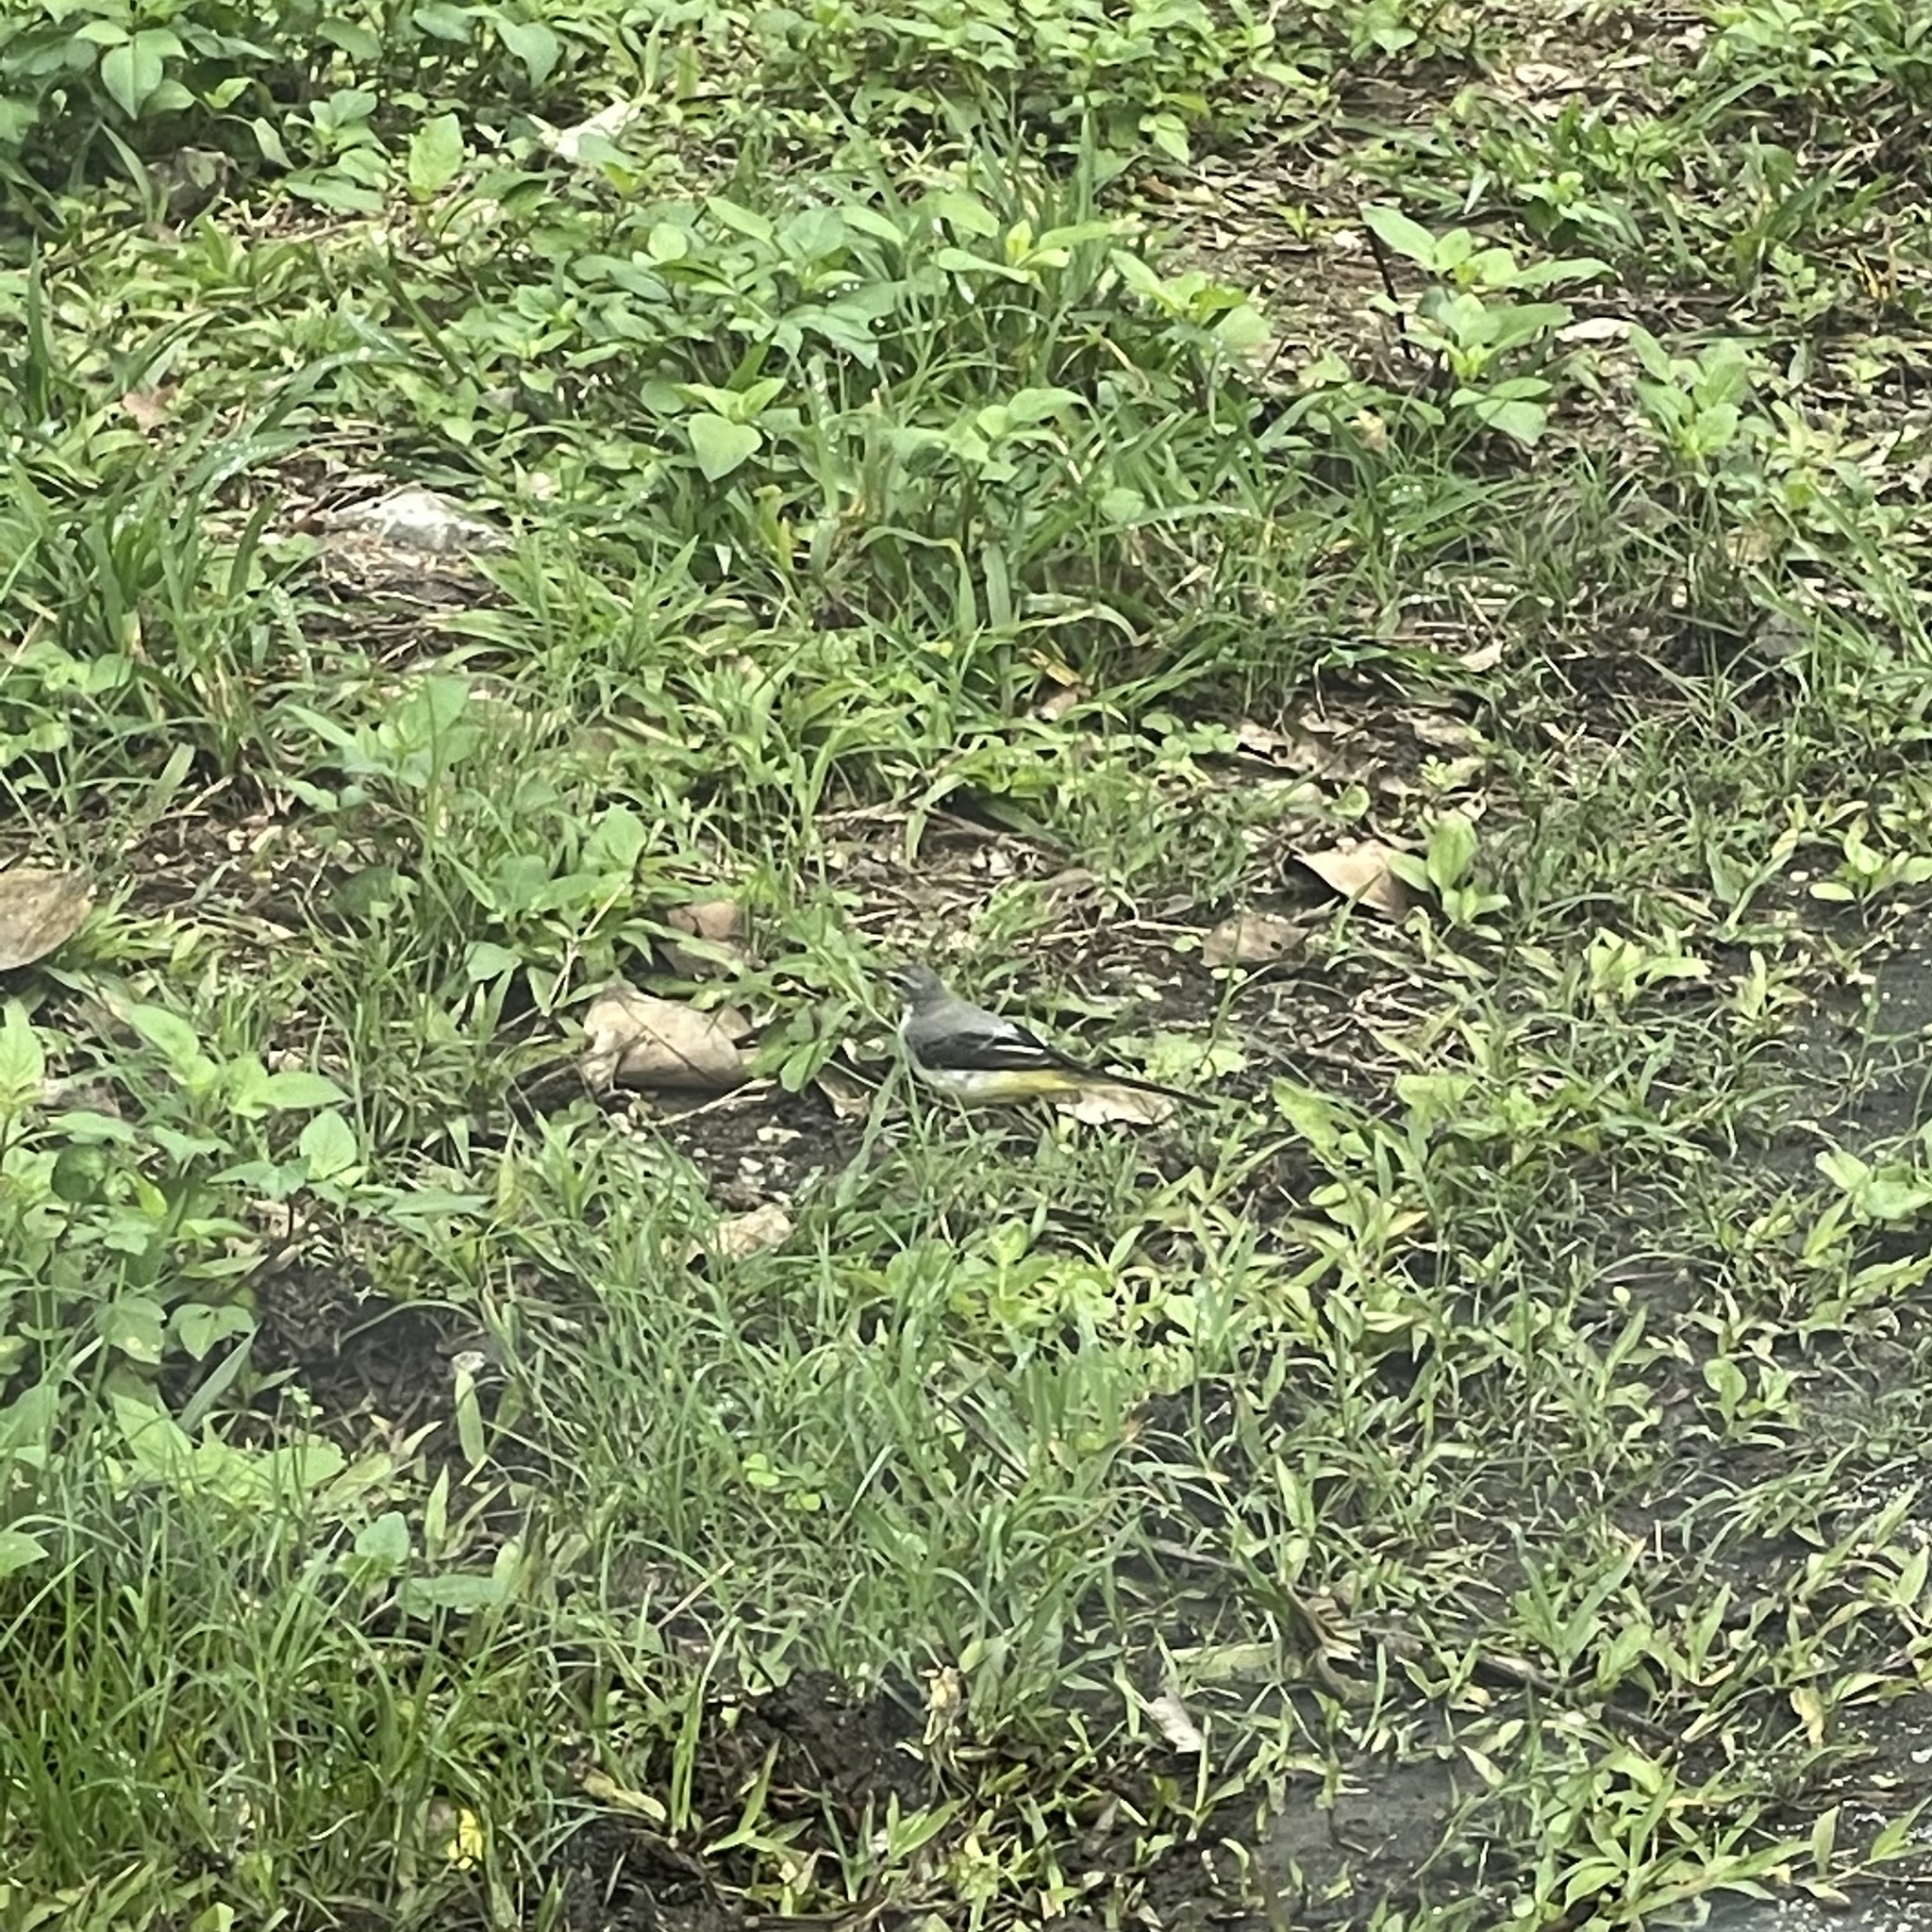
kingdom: Animalia
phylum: Chordata
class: Aves
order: Passeriformes
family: Motacillidae
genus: Motacilla
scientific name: Motacilla cinerea
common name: Grey wagtail
